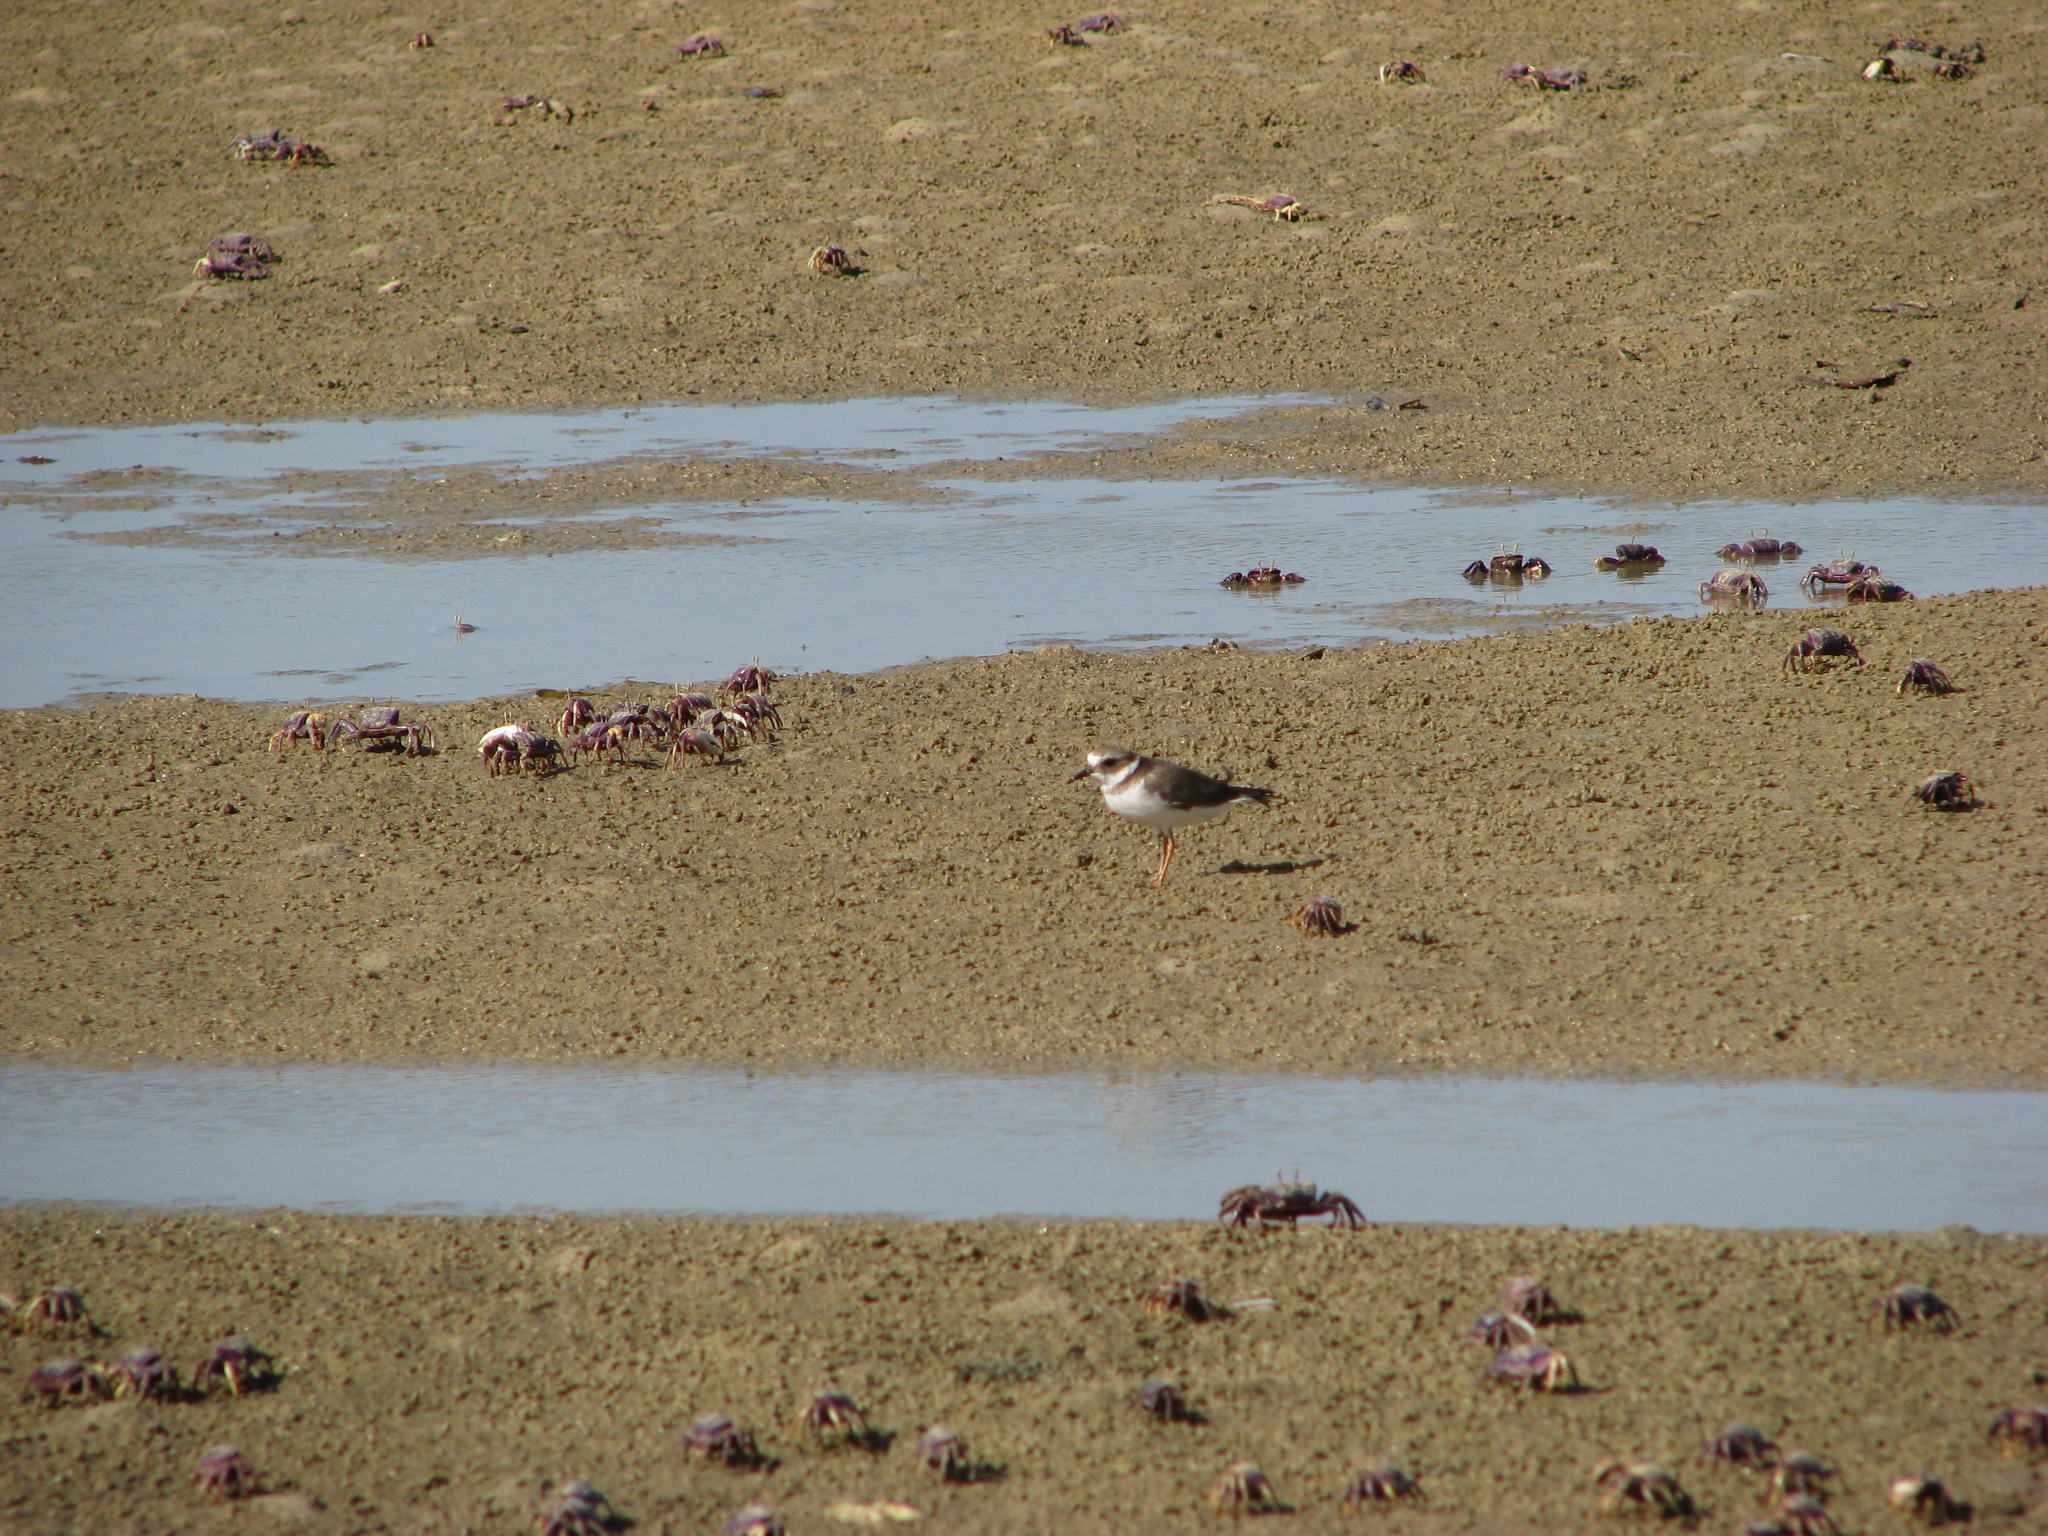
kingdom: Animalia
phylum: Chordata
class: Aves
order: Charadriiformes
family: Charadriidae
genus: Charadrius
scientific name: Charadrius hiaticula
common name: Common ringed plover
